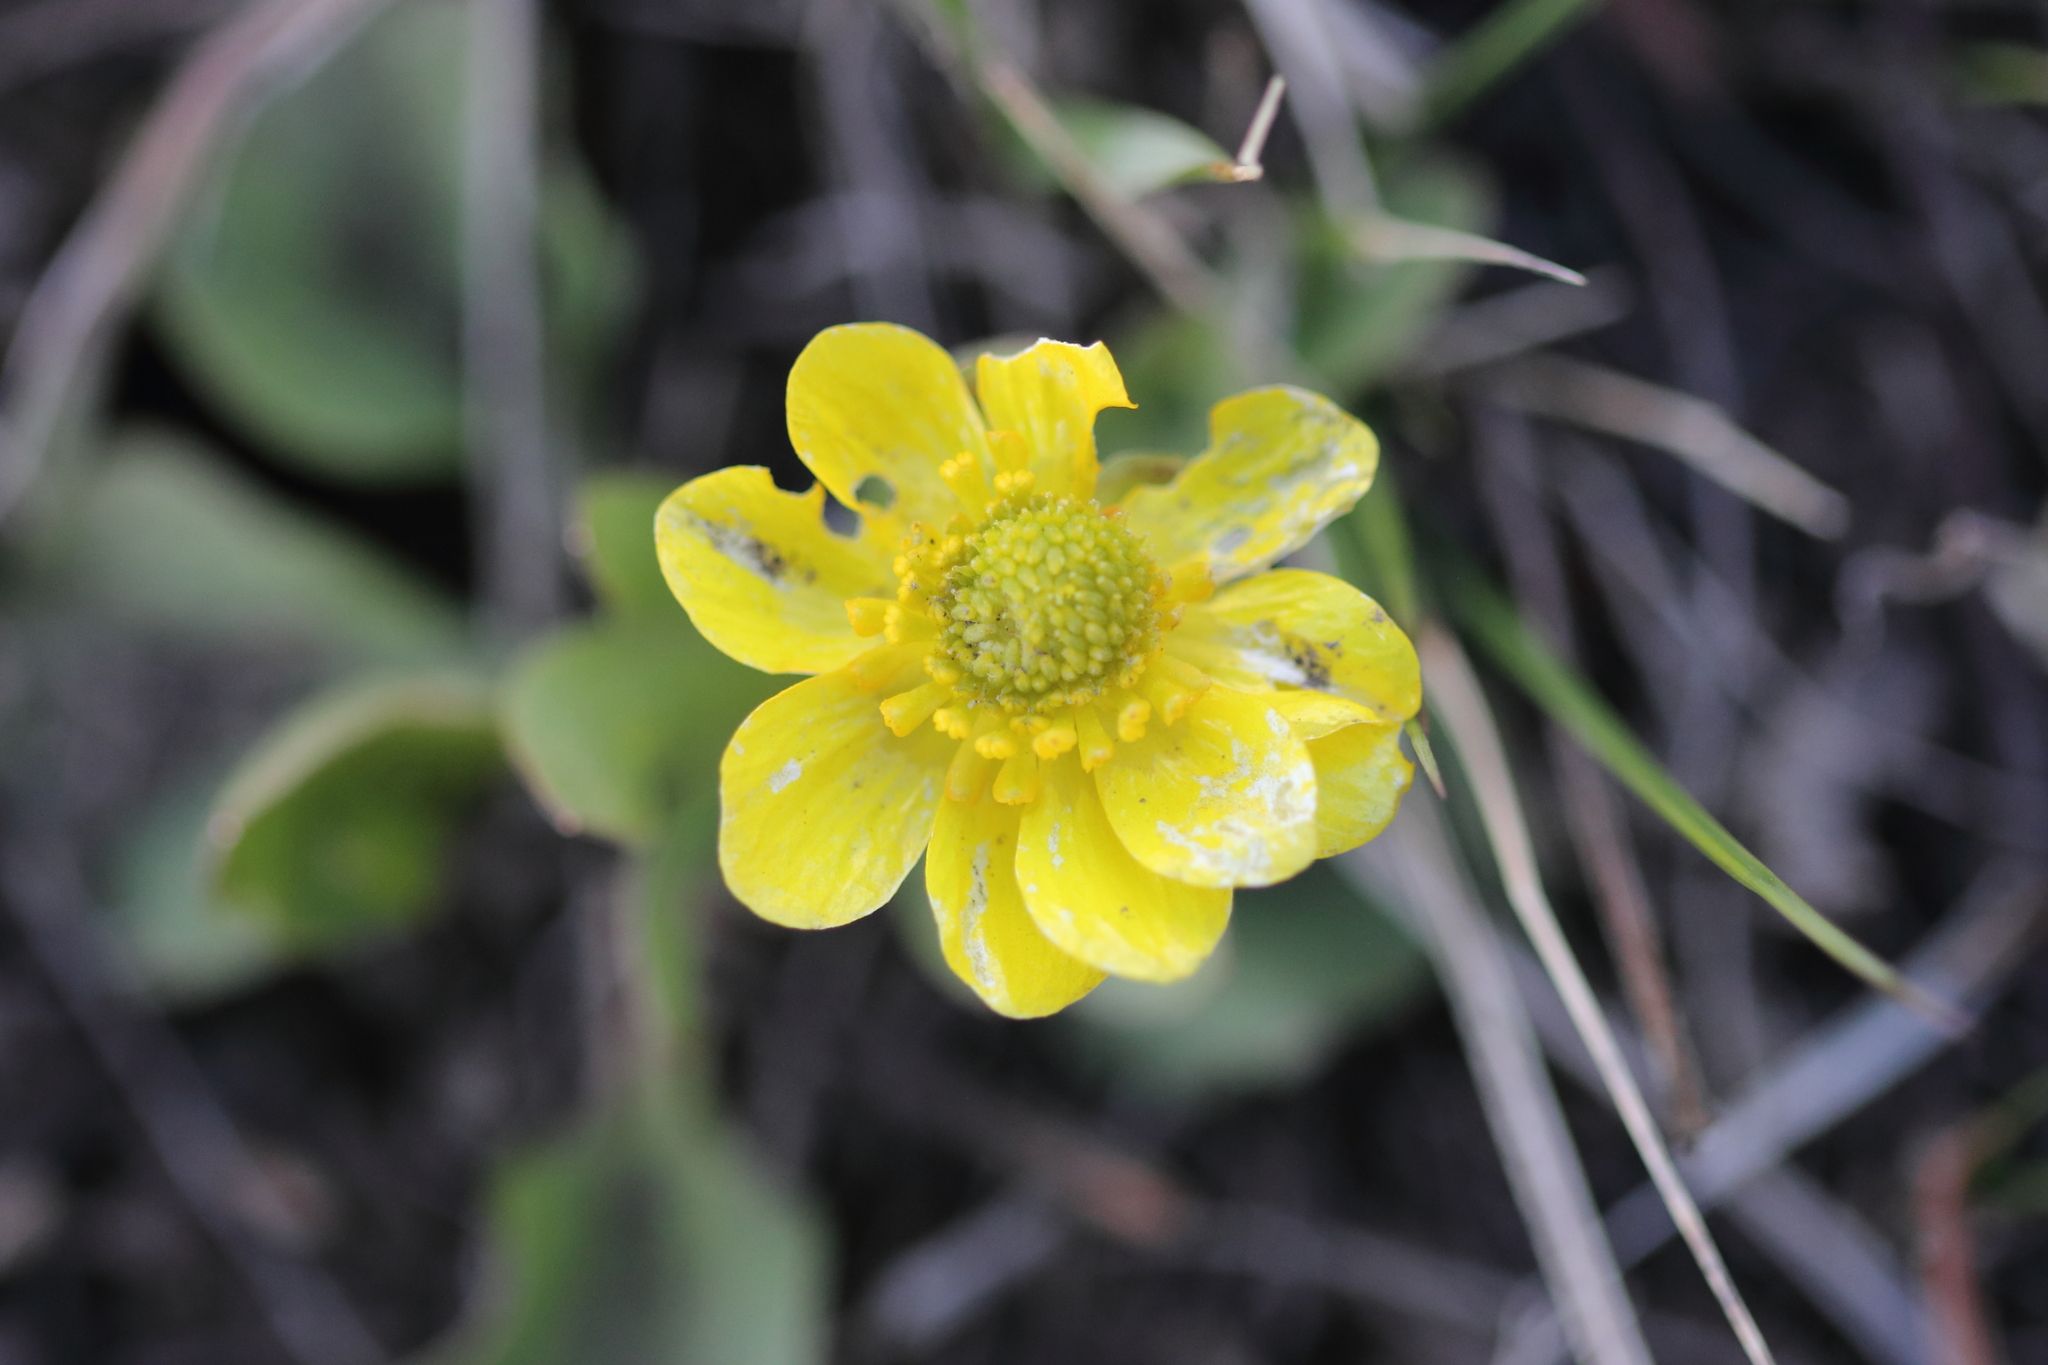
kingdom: Plantae
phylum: Tracheophyta
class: Magnoliopsida
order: Ranunculales
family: Ranunculaceae
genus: Ranunculus
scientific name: Ranunculus glaberrimus
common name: Sagebrush buttercup
